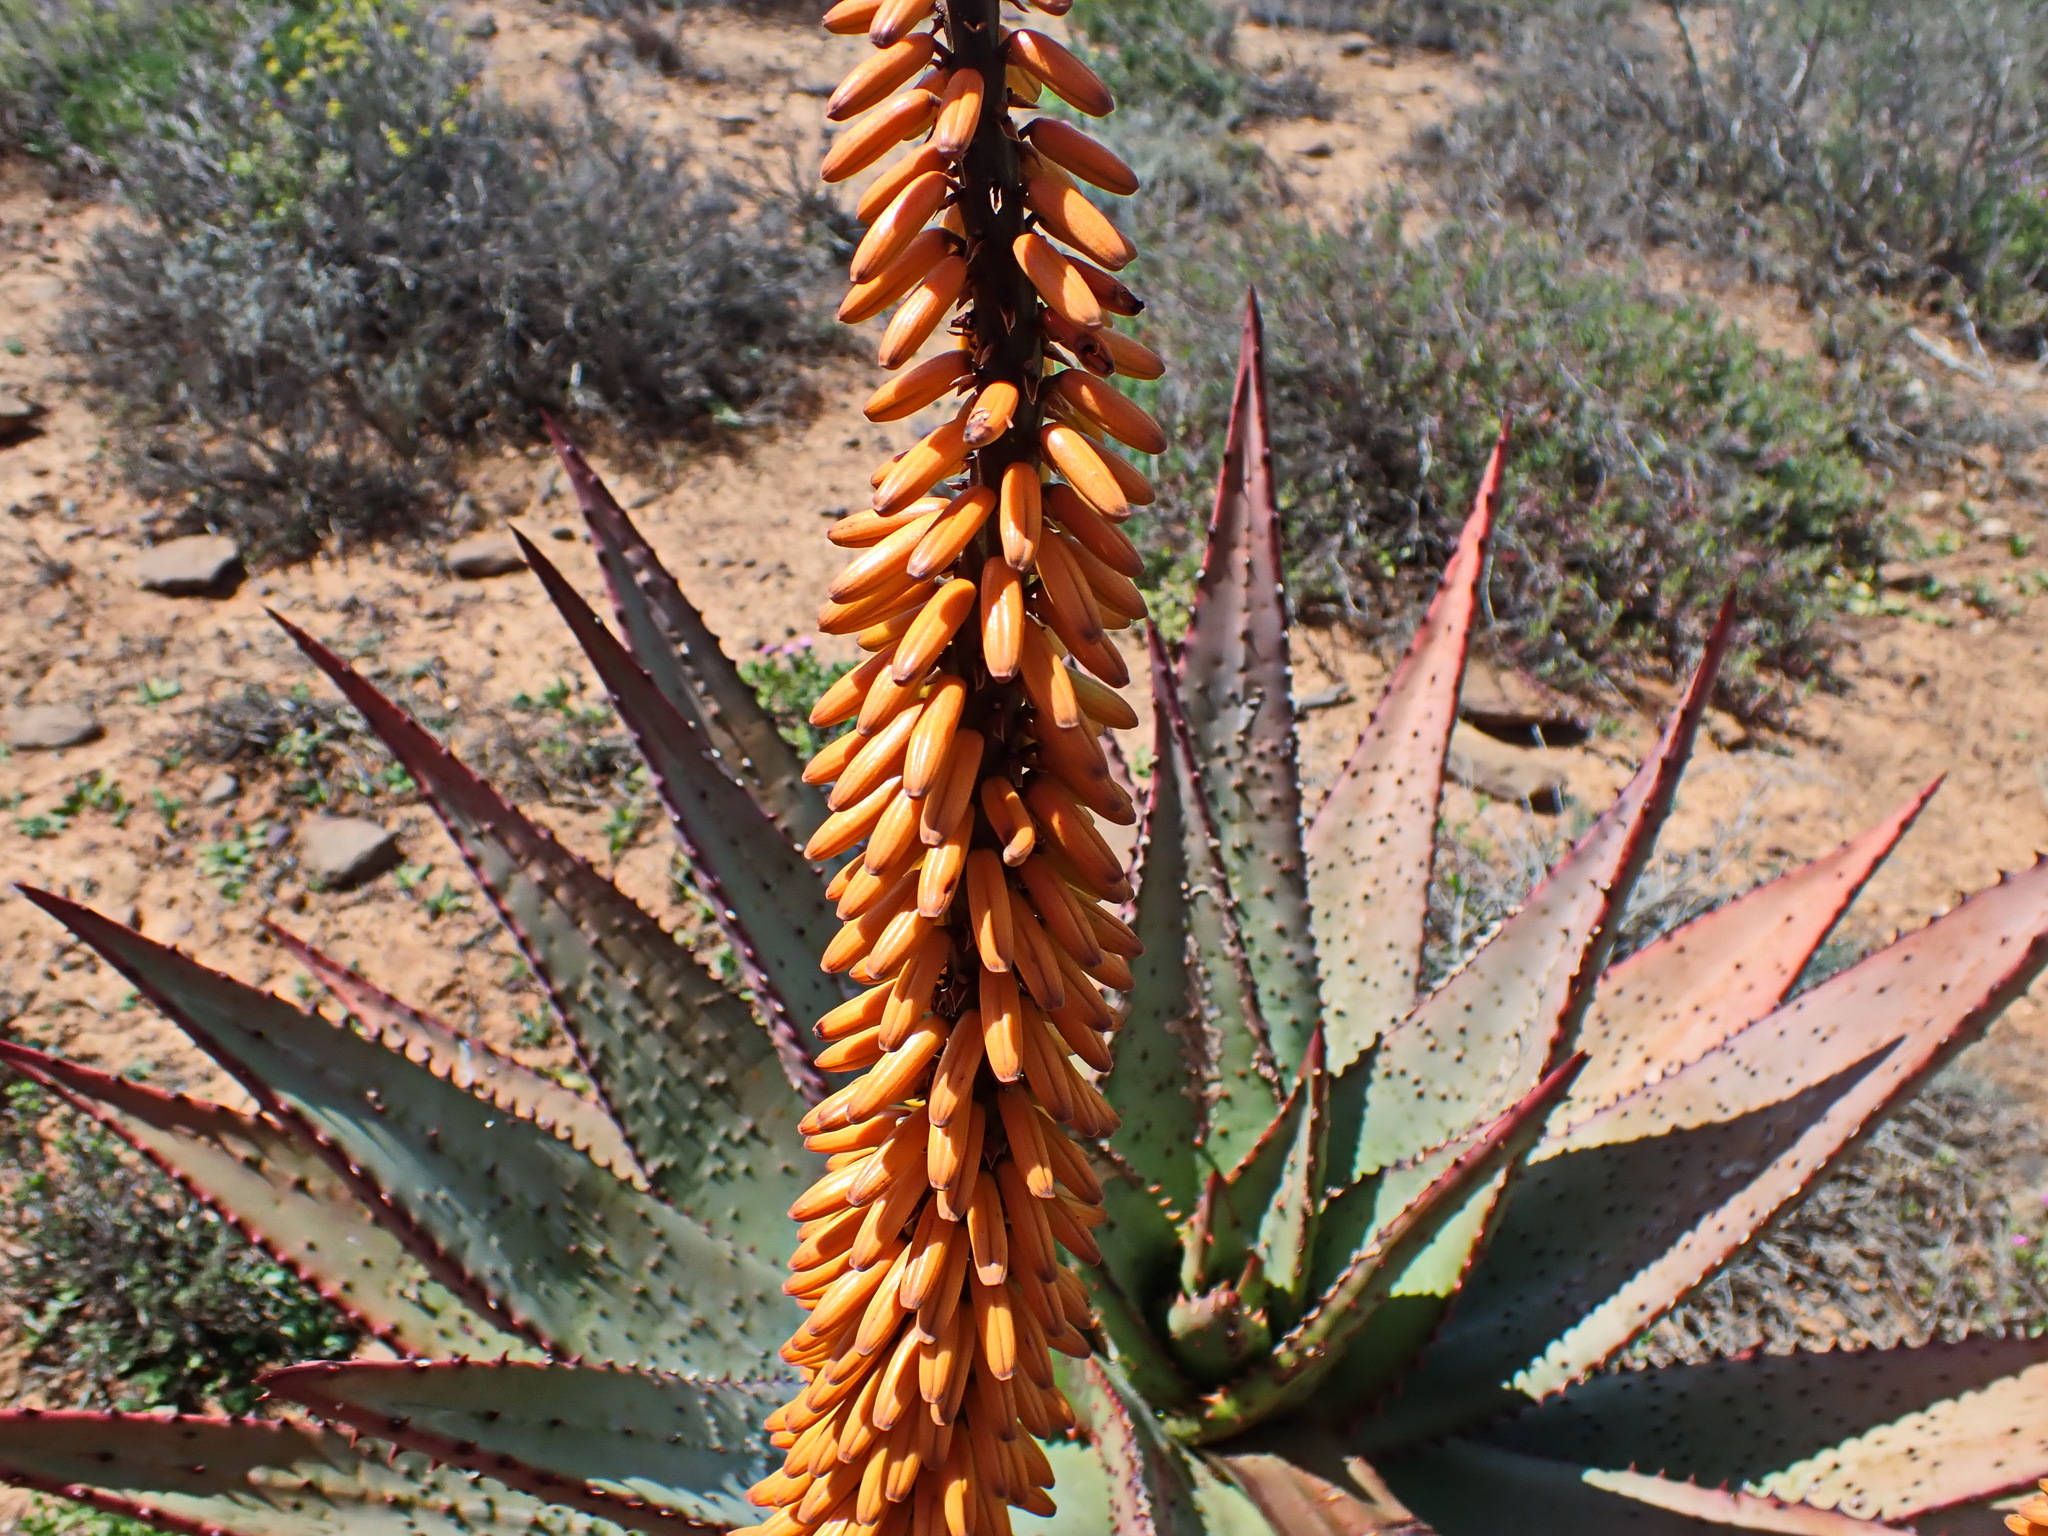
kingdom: Plantae
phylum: Tracheophyta
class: Liliopsida
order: Asparagales
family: Asphodelaceae
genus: Aloe
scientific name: Aloe ferox
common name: Bitter aloe
